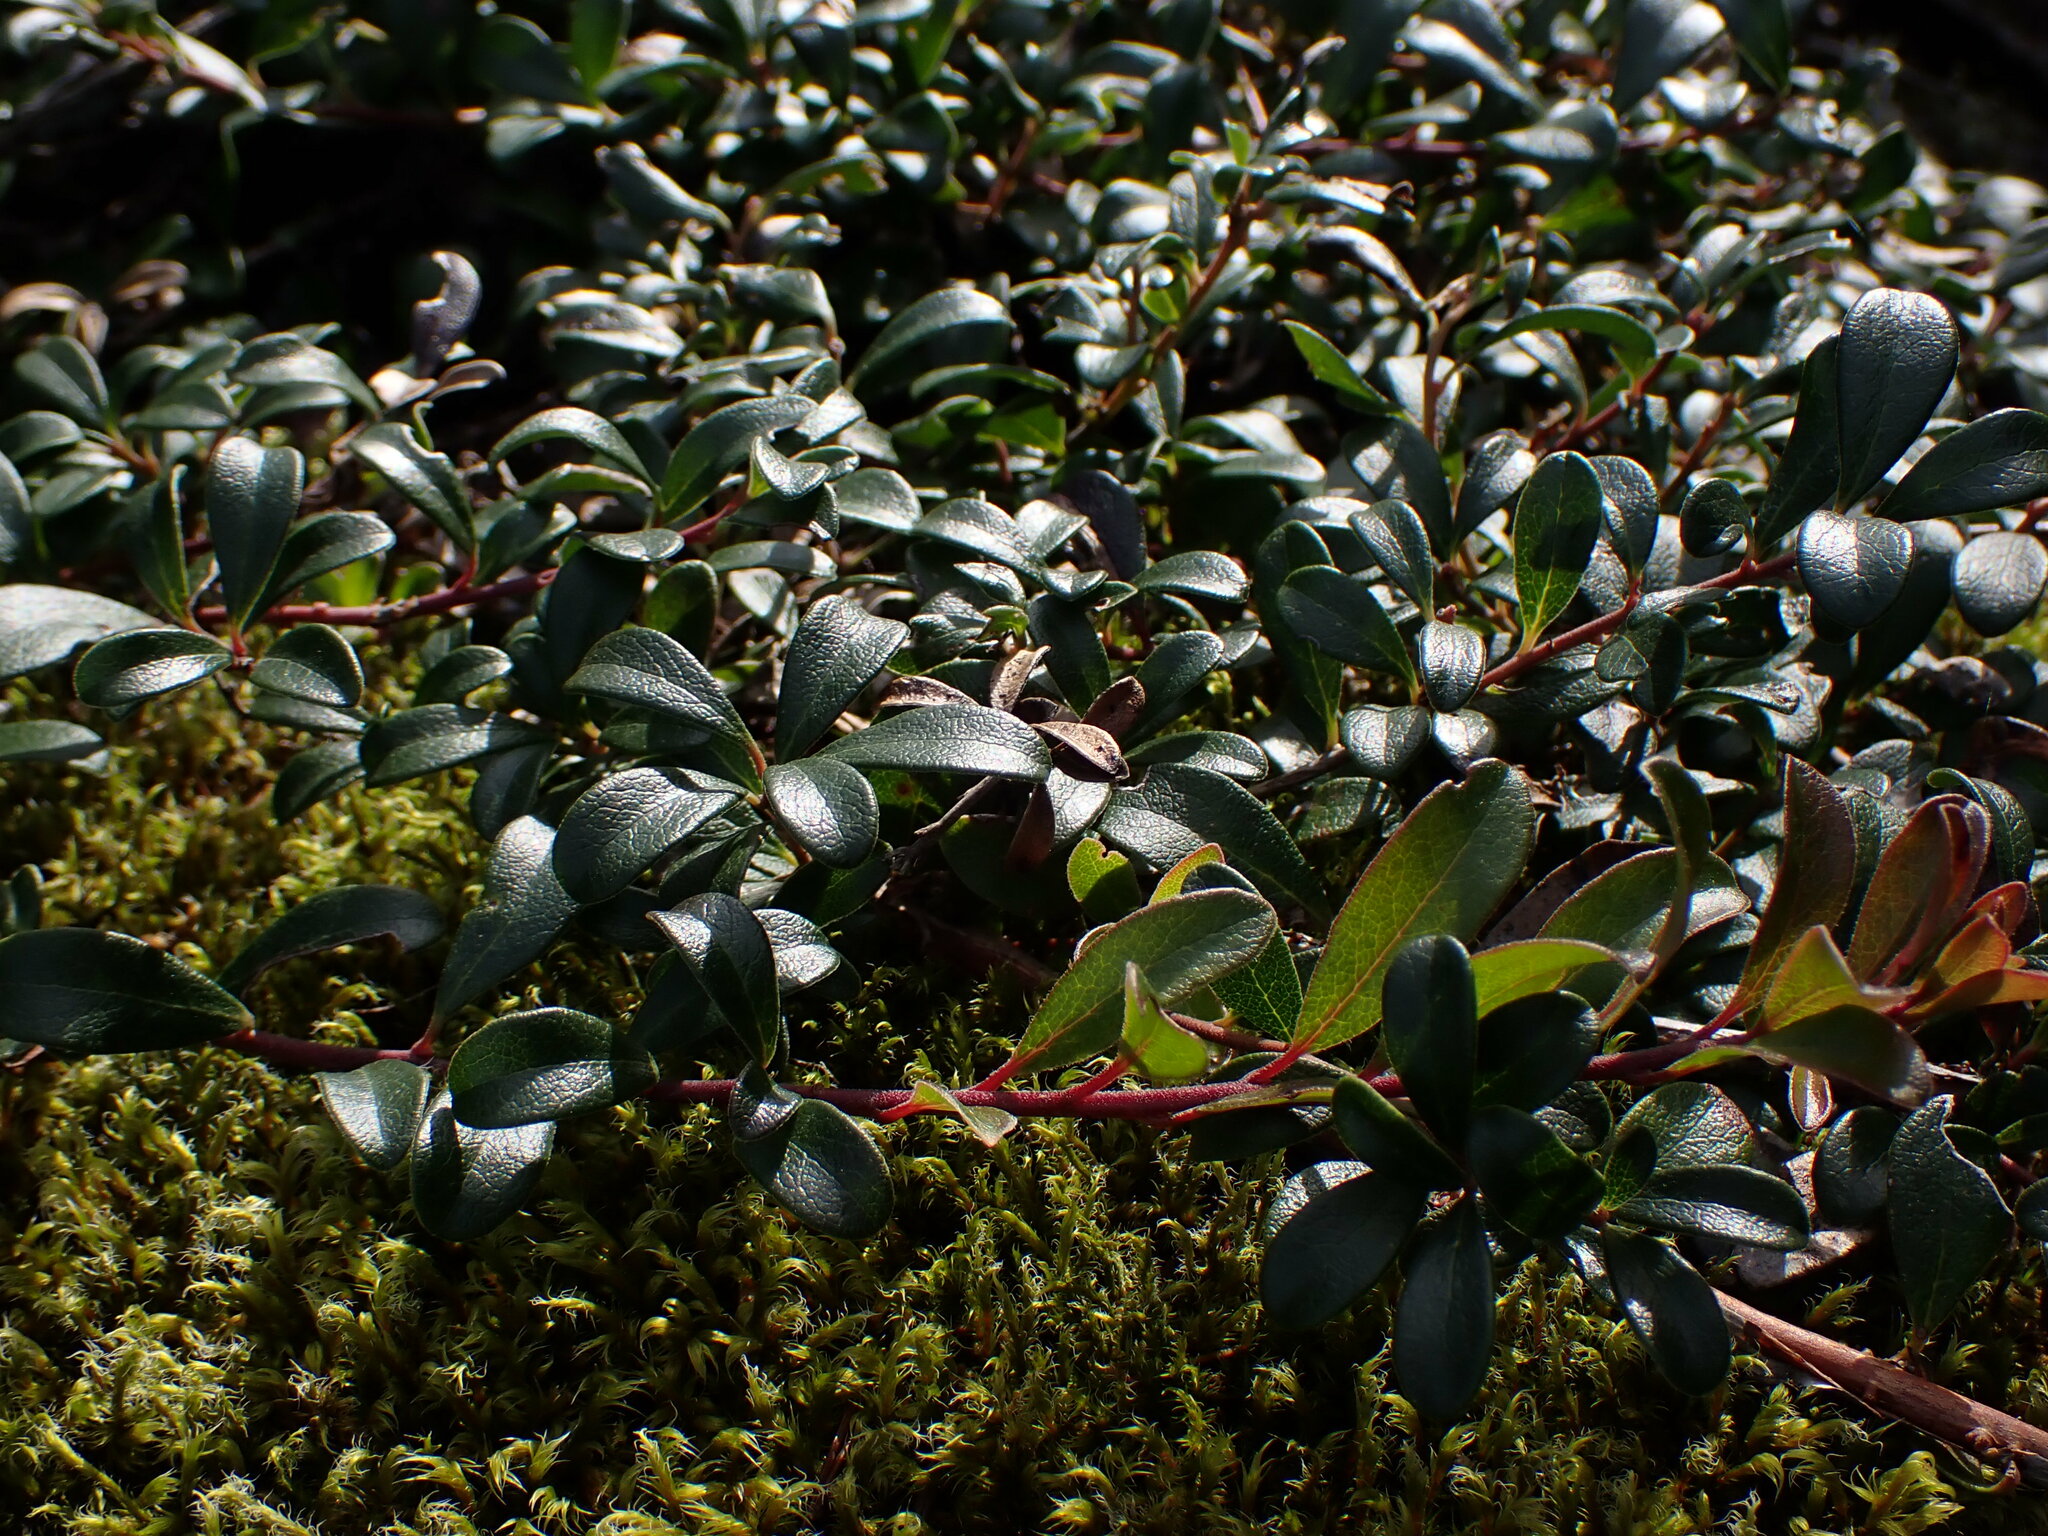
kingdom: Plantae
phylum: Tracheophyta
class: Magnoliopsida
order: Ericales
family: Ericaceae
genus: Arctostaphylos
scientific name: Arctostaphylos uva-ursi
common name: Bearberry
